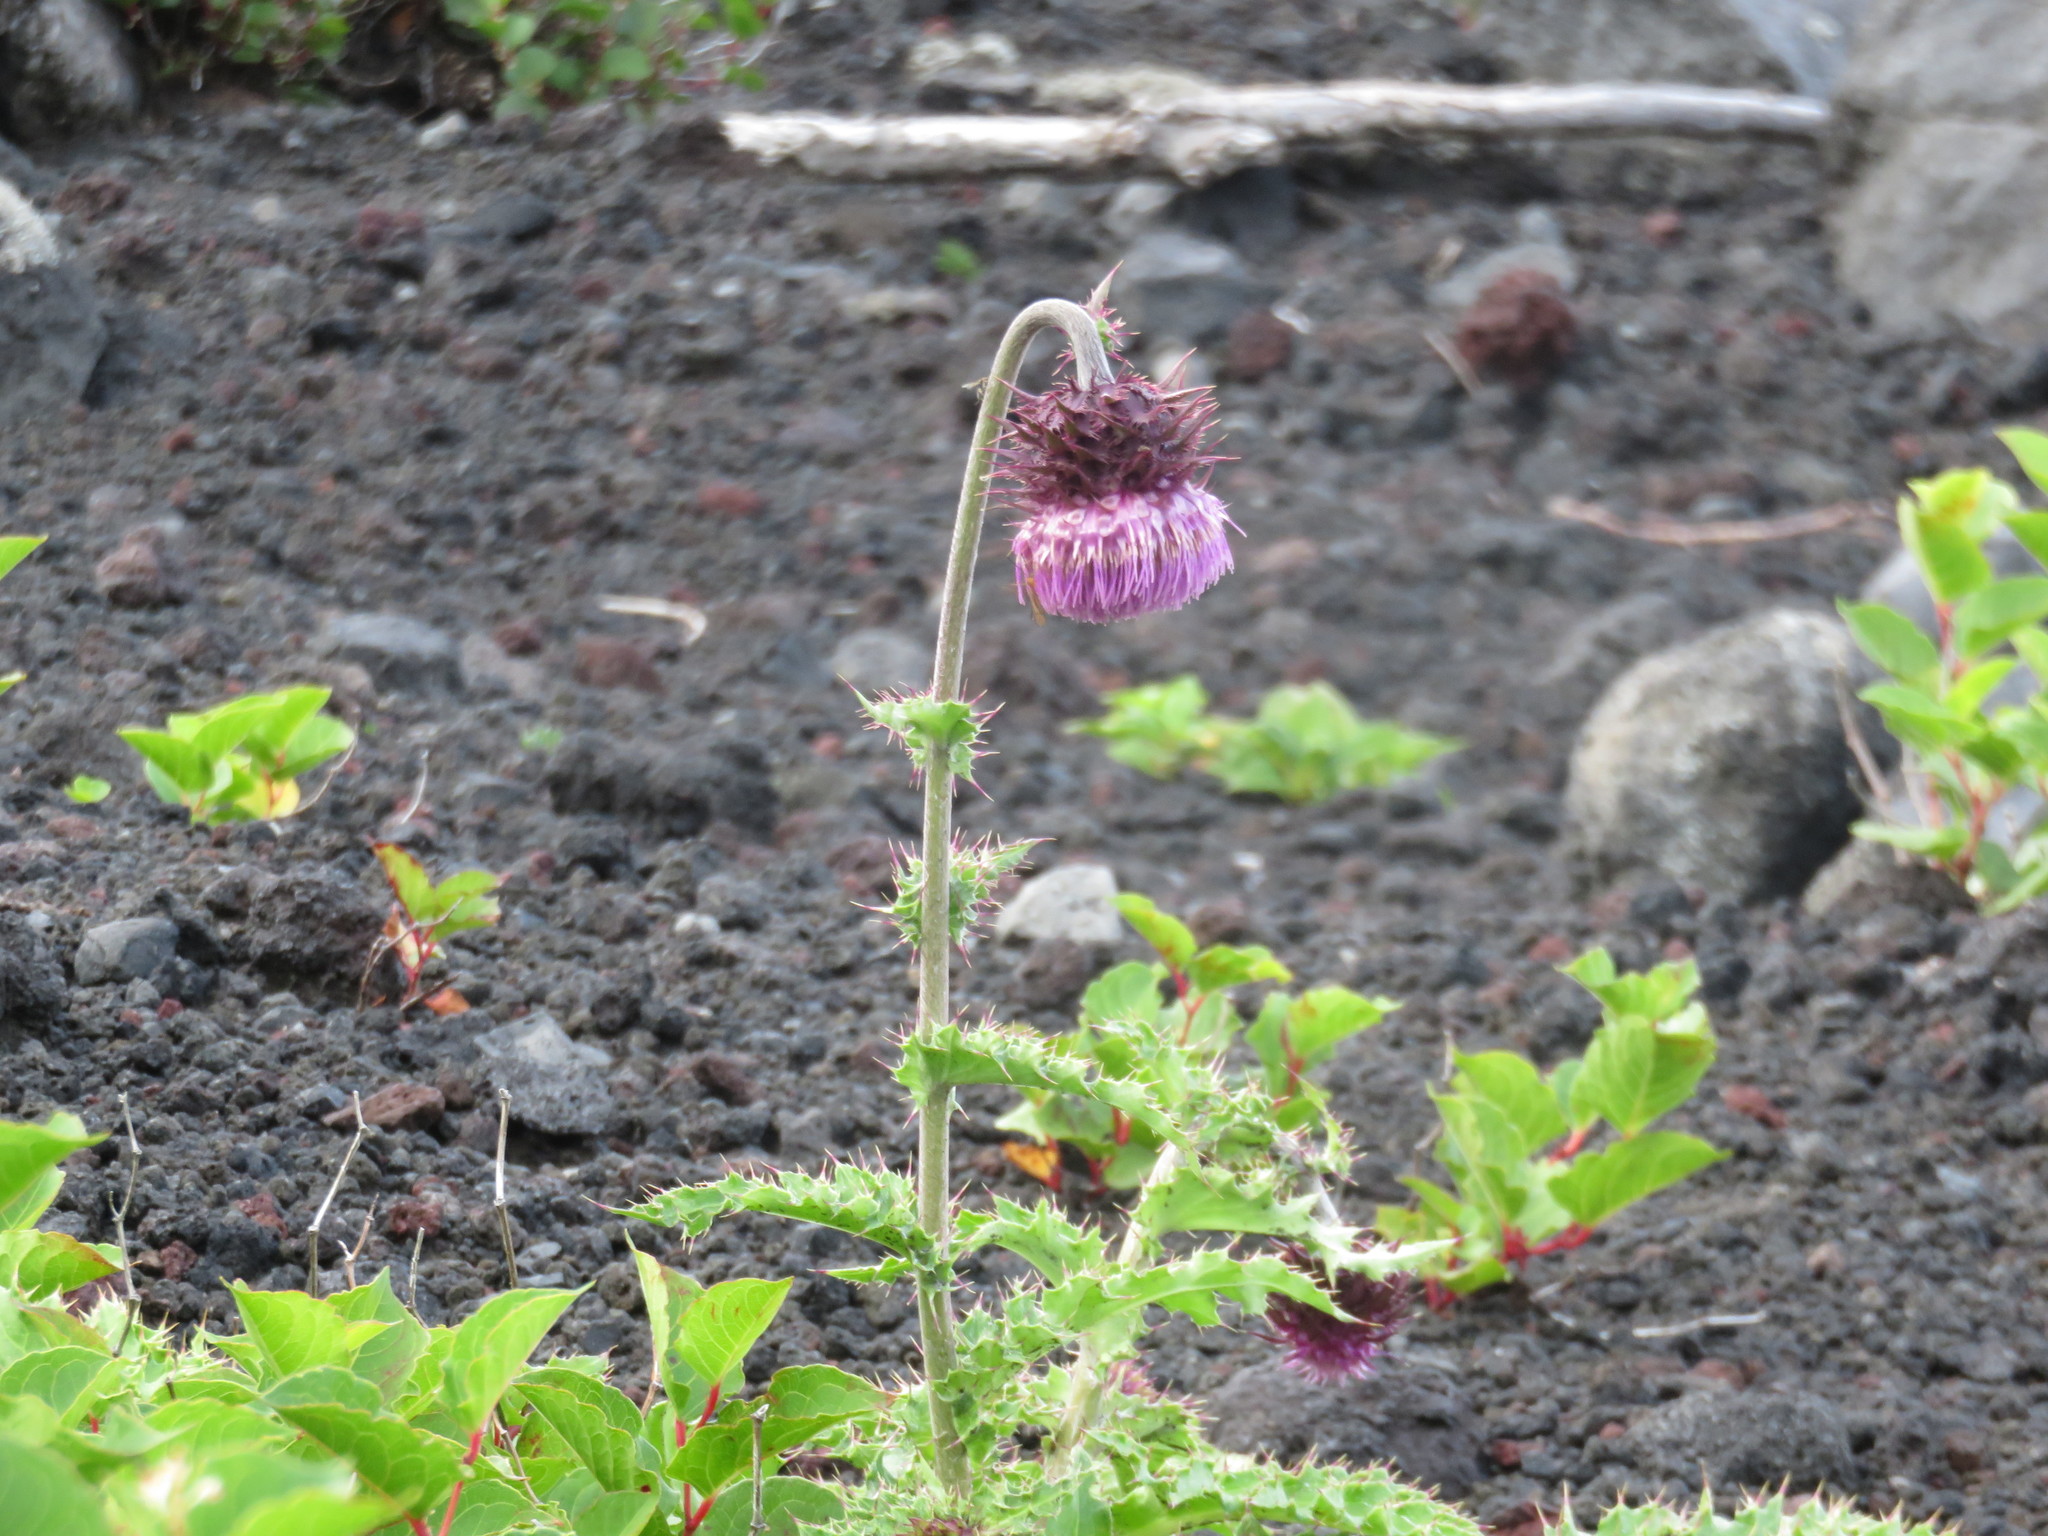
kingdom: Plantae
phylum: Tracheophyta
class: Magnoliopsida
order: Asterales
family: Asteraceae
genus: Cirsium
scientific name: Cirsium purpuratum
